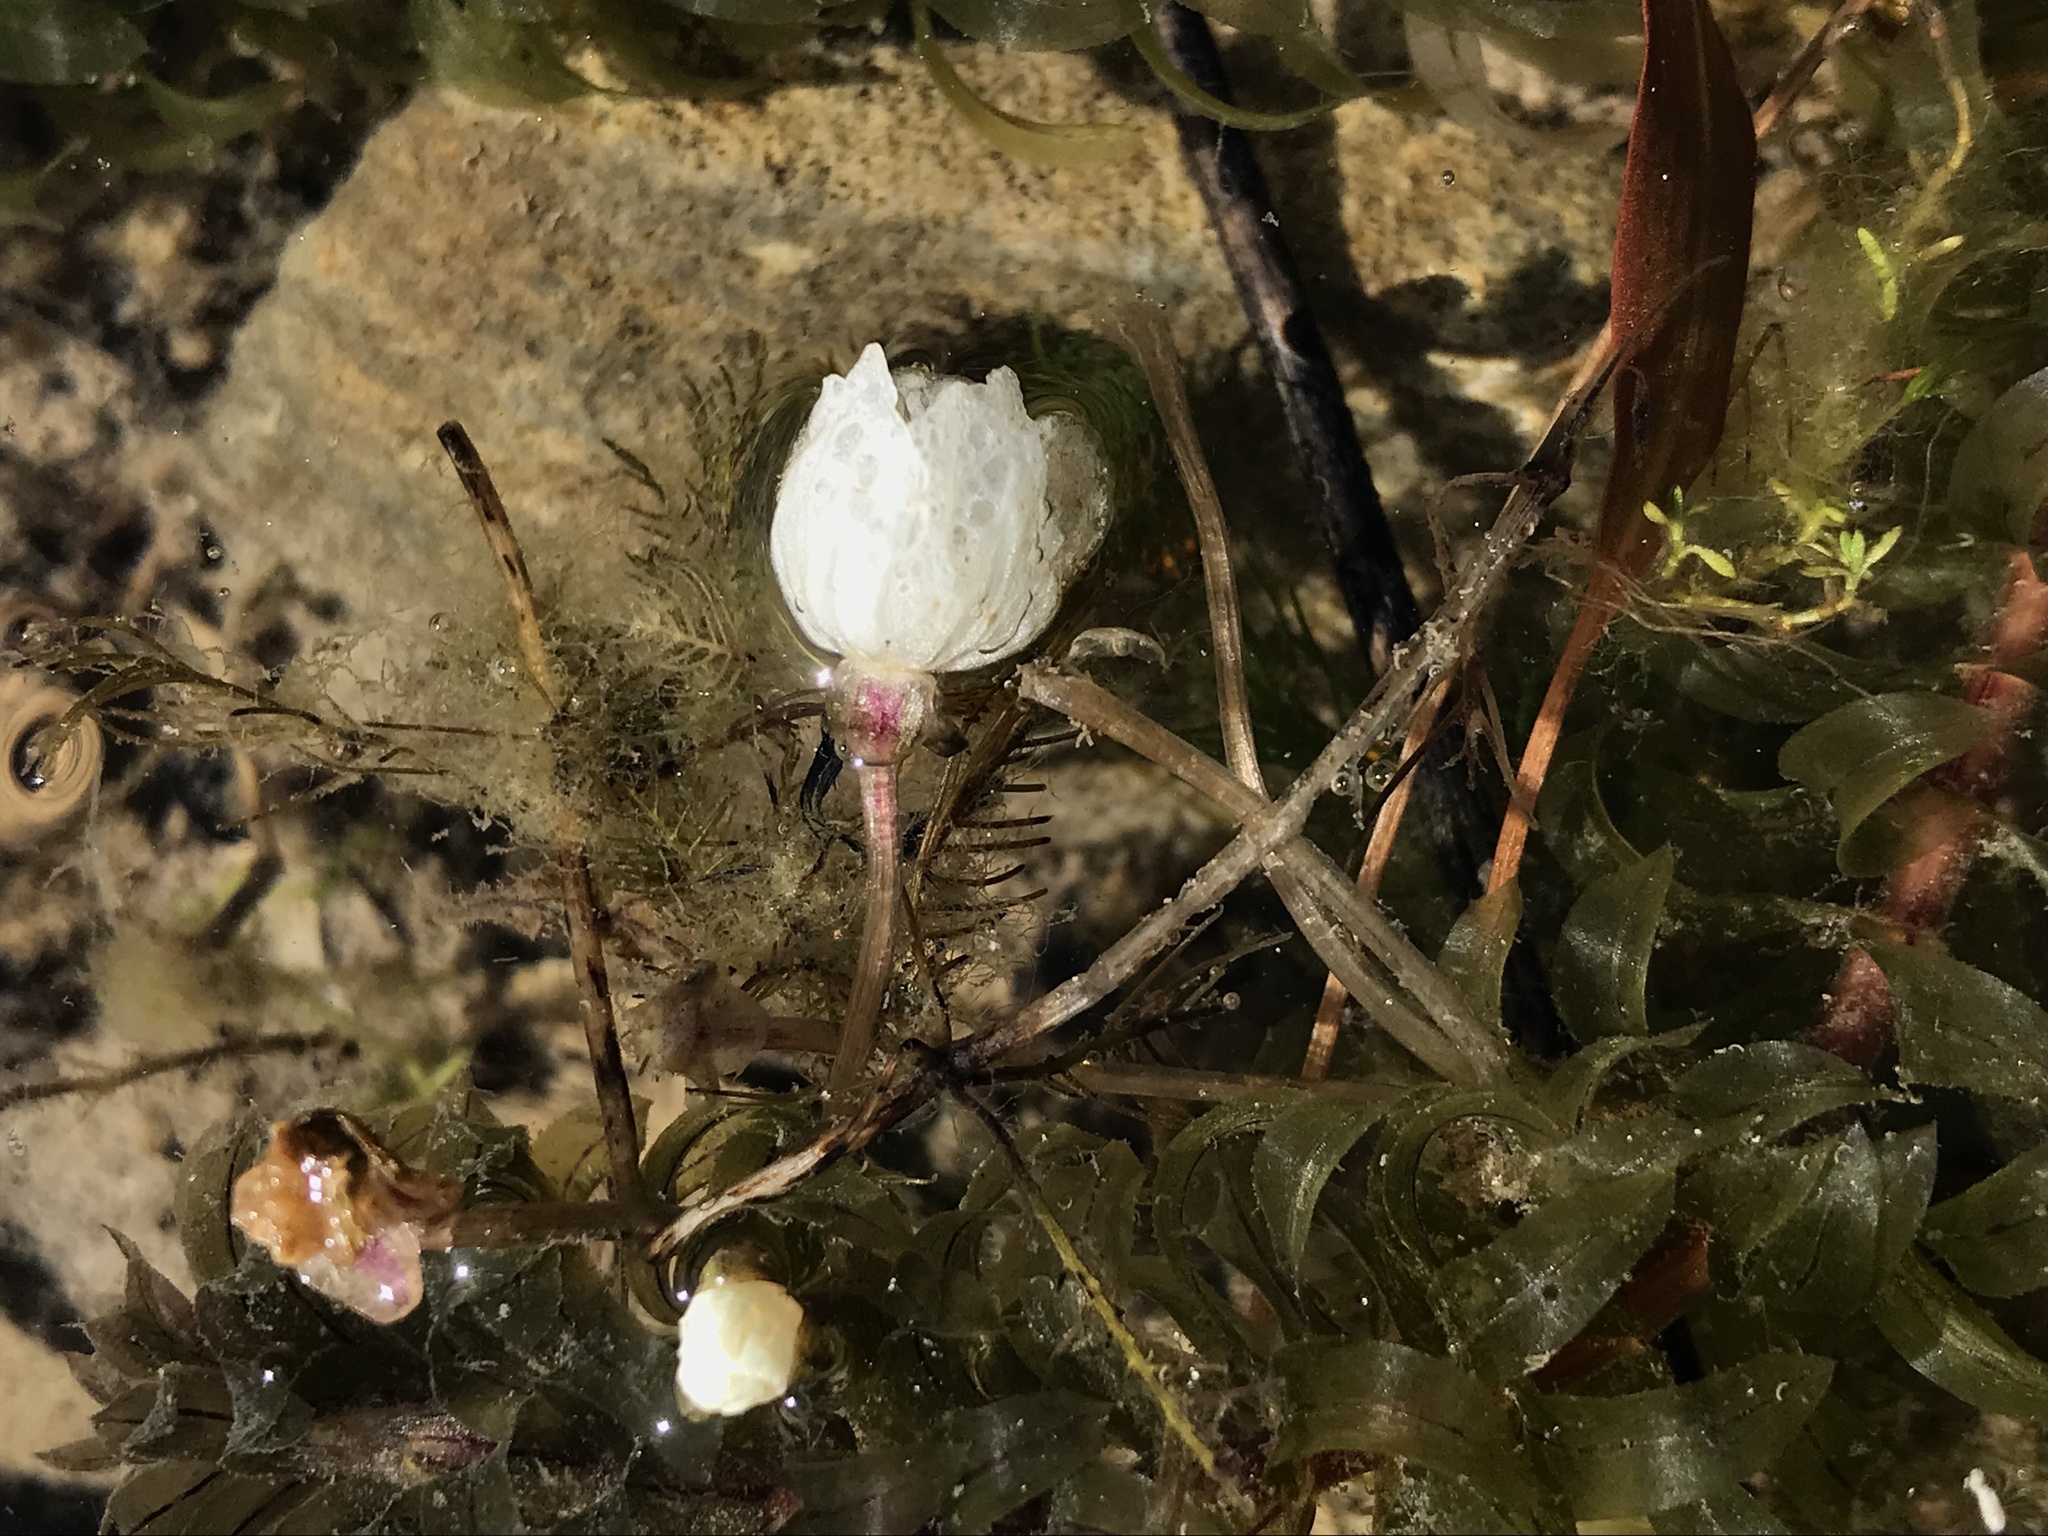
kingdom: Plantae
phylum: Tracheophyta
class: Liliopsida
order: Alismatales
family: Hydrocharitaceae
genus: Elodea
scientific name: Elodea densa
